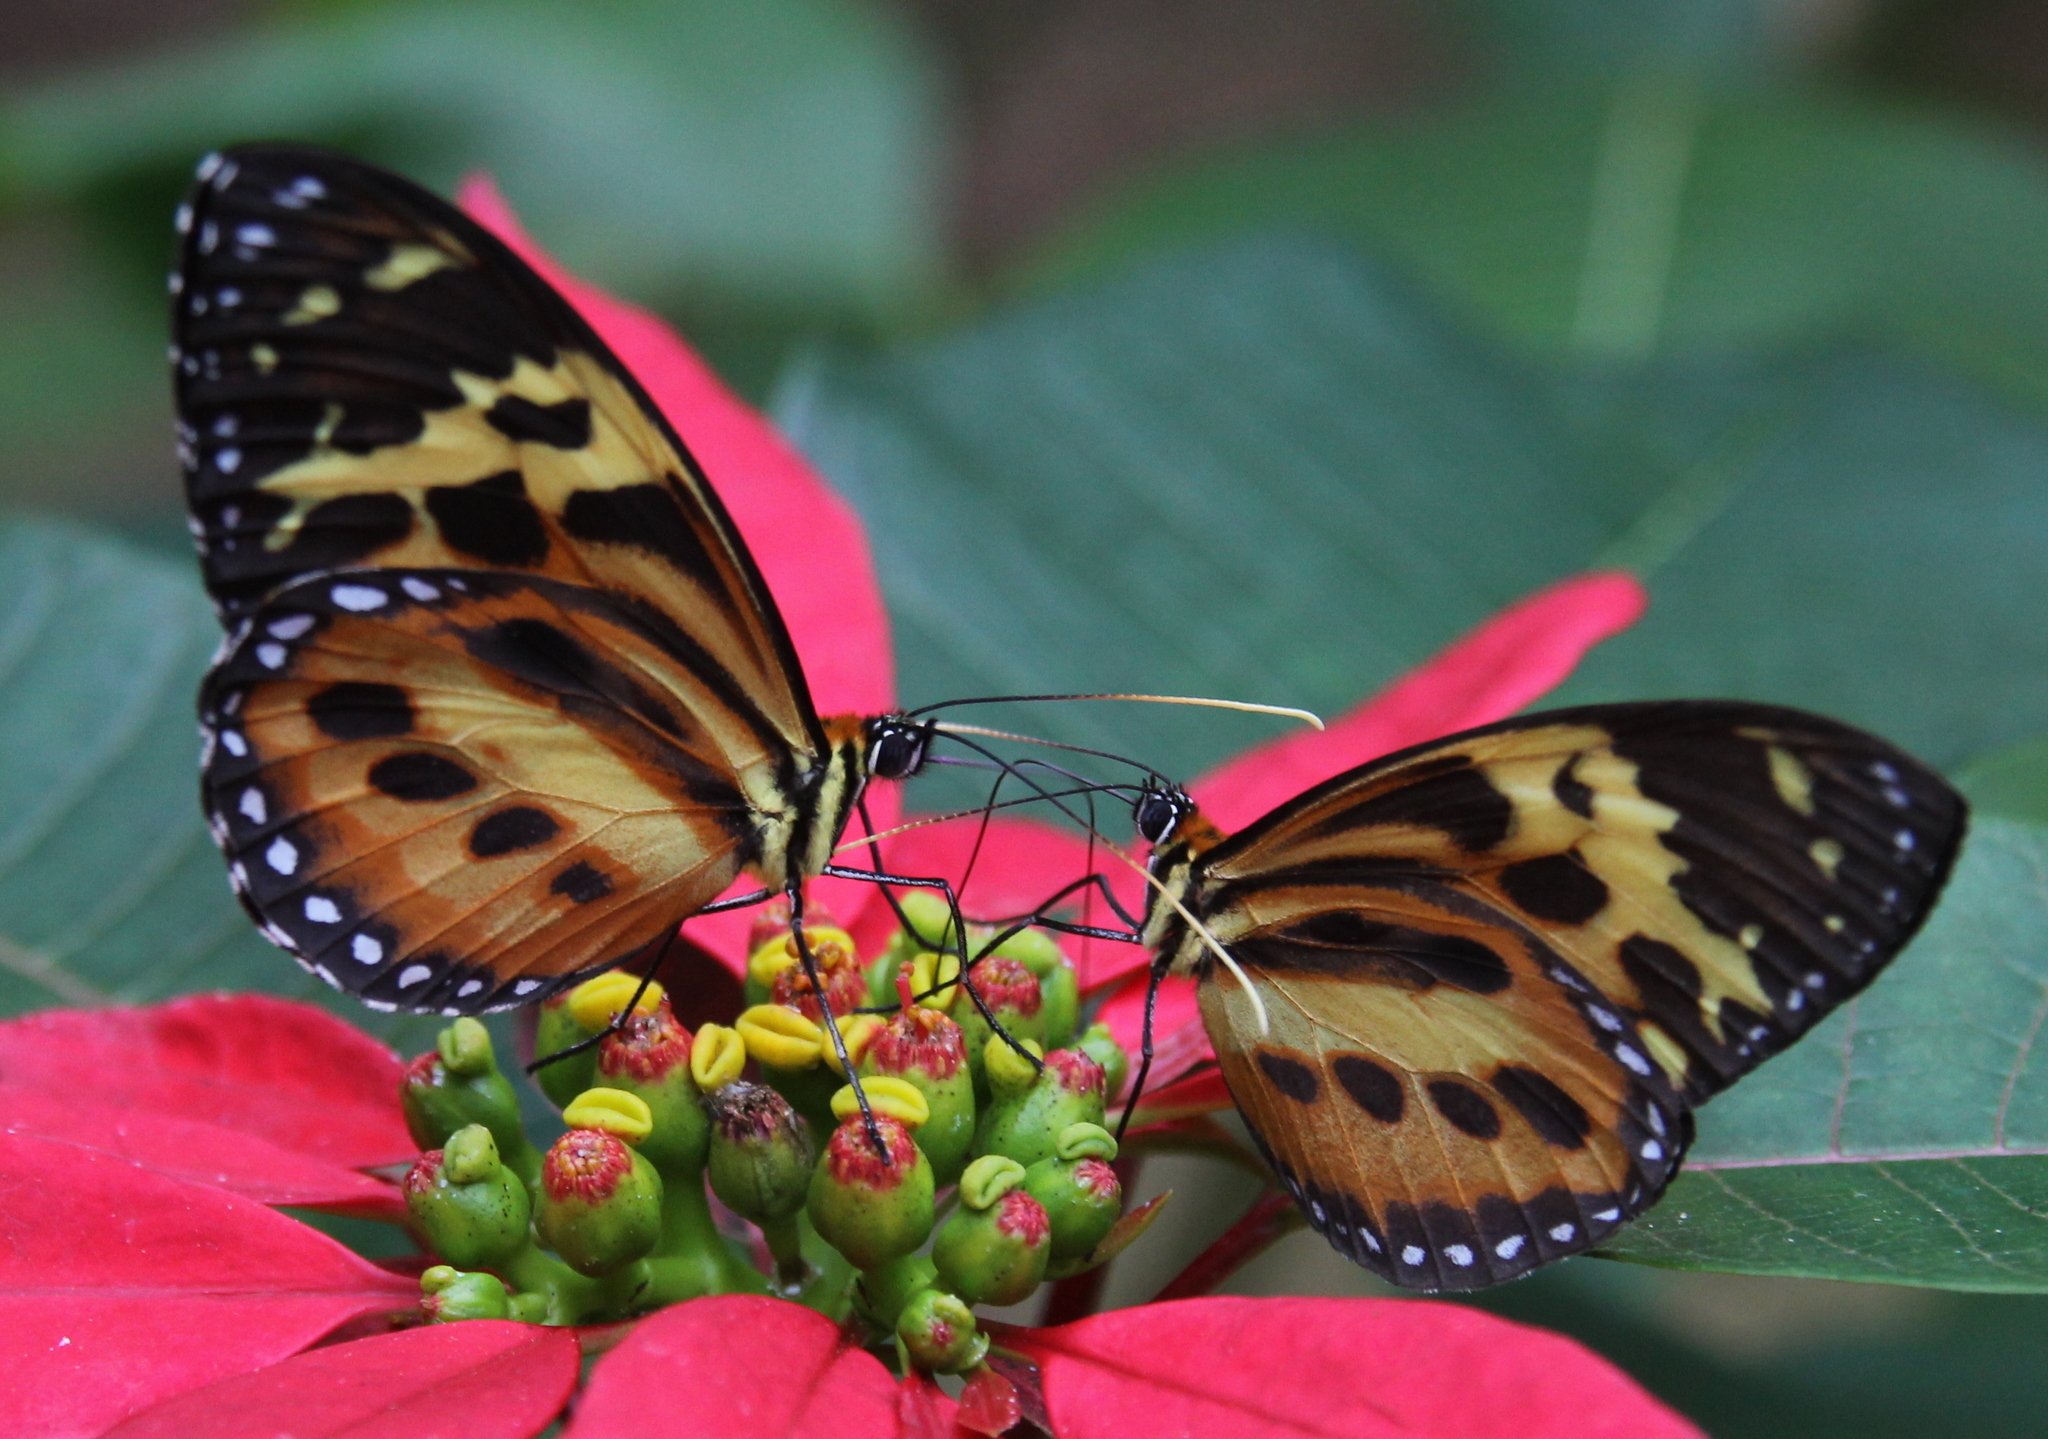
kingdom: Animalia
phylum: Arthropoda
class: Insecta
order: Lepidoptera
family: Nymphalidae
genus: Tithorea
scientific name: Tithorea harmonia
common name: Harmonia tigerwing
